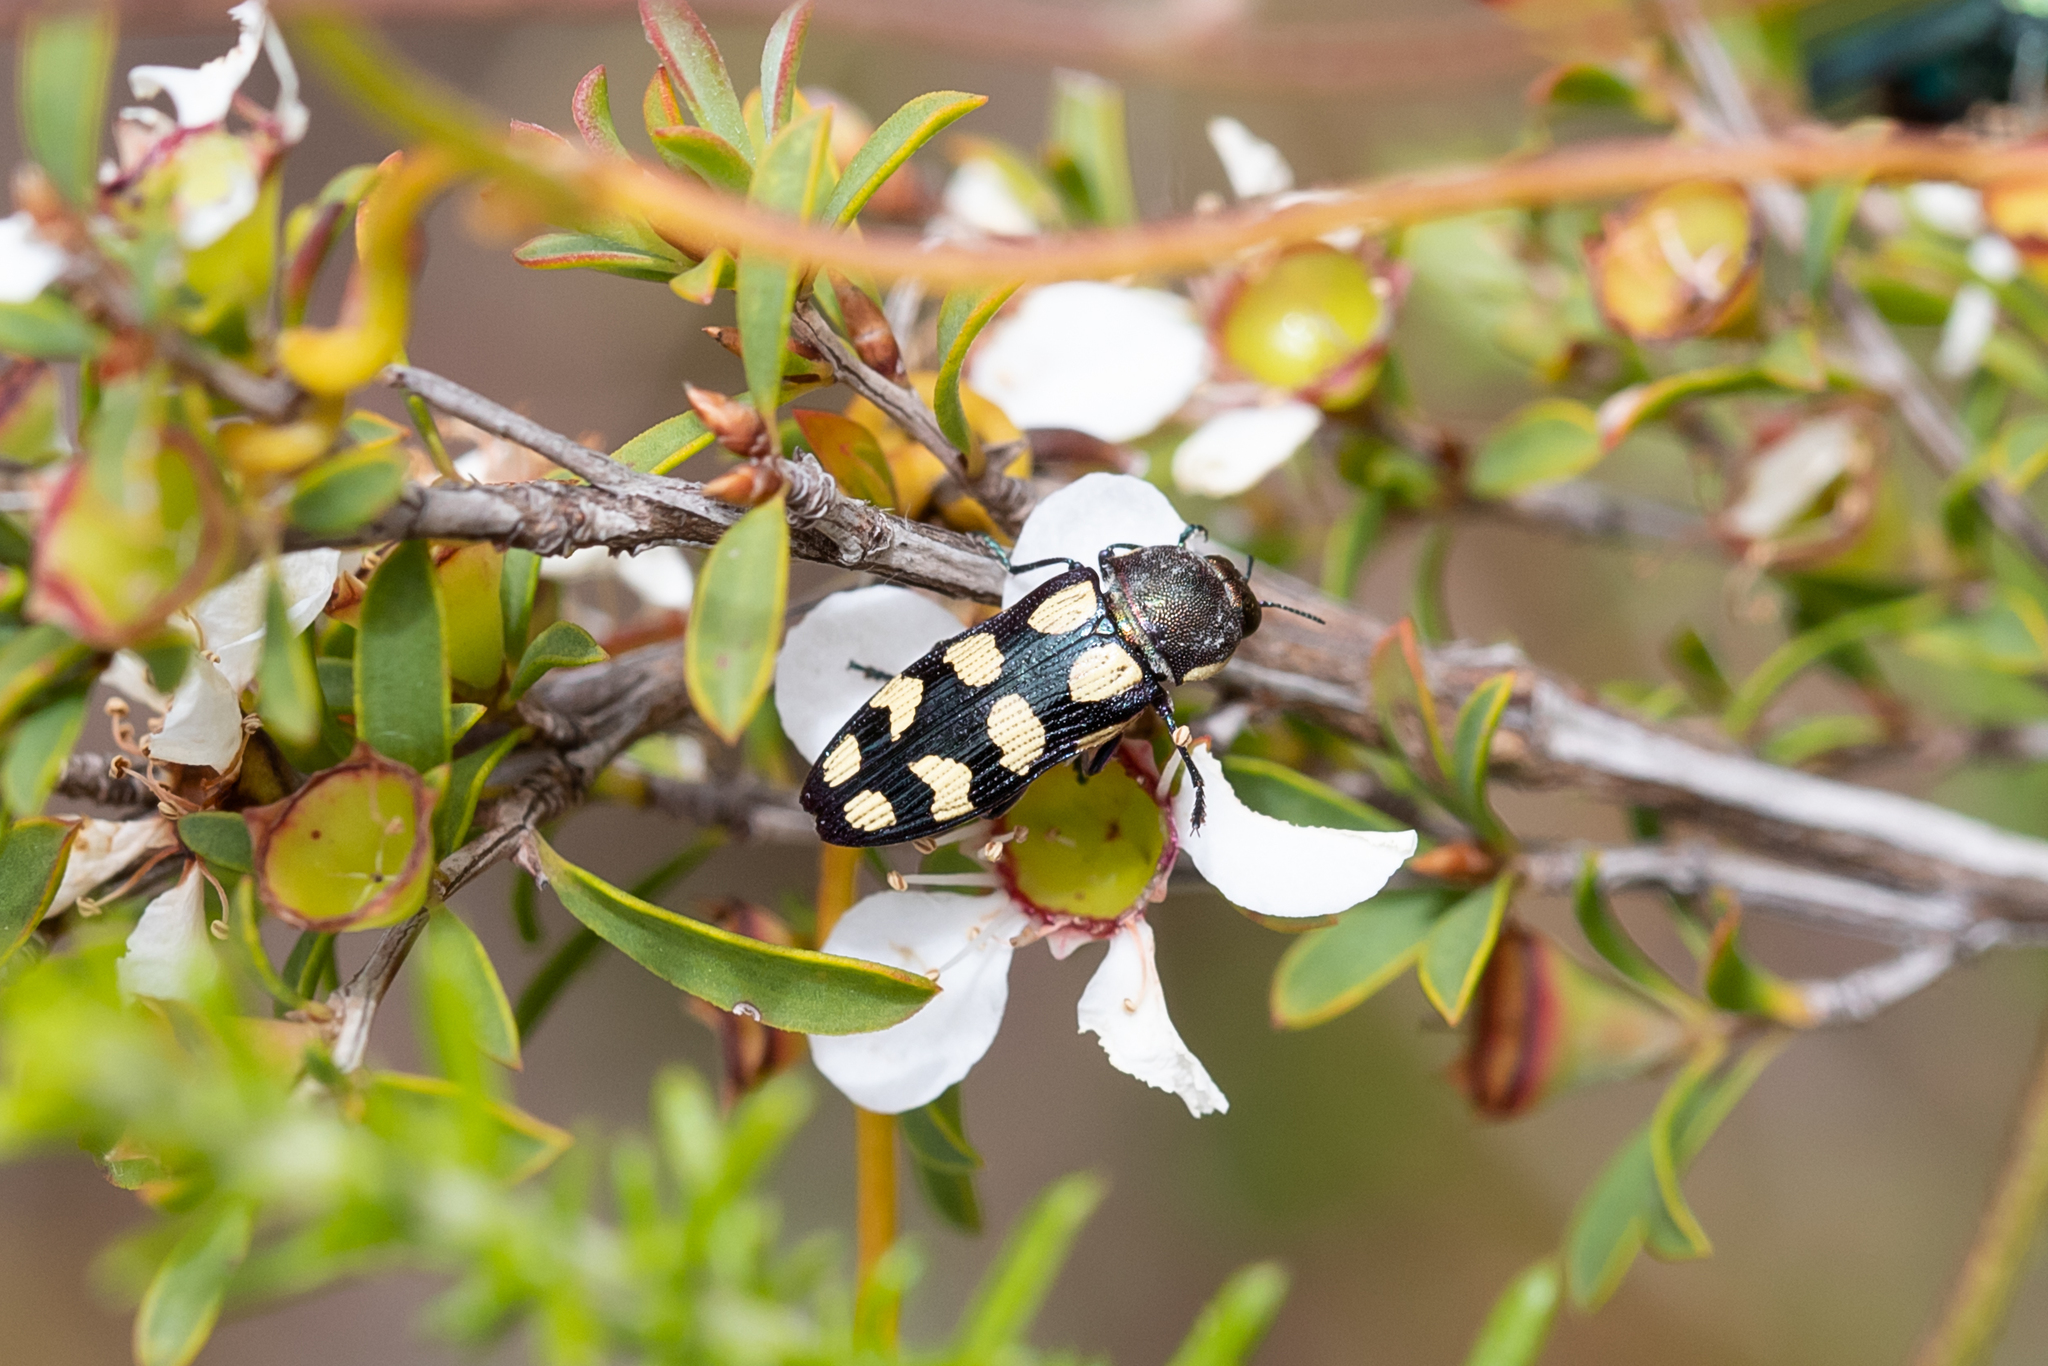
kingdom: Animalia
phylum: Arthropoda
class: Insecta
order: Coleoptera
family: Buprestidae
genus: Castiarina
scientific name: Castiarina decemmaculata
